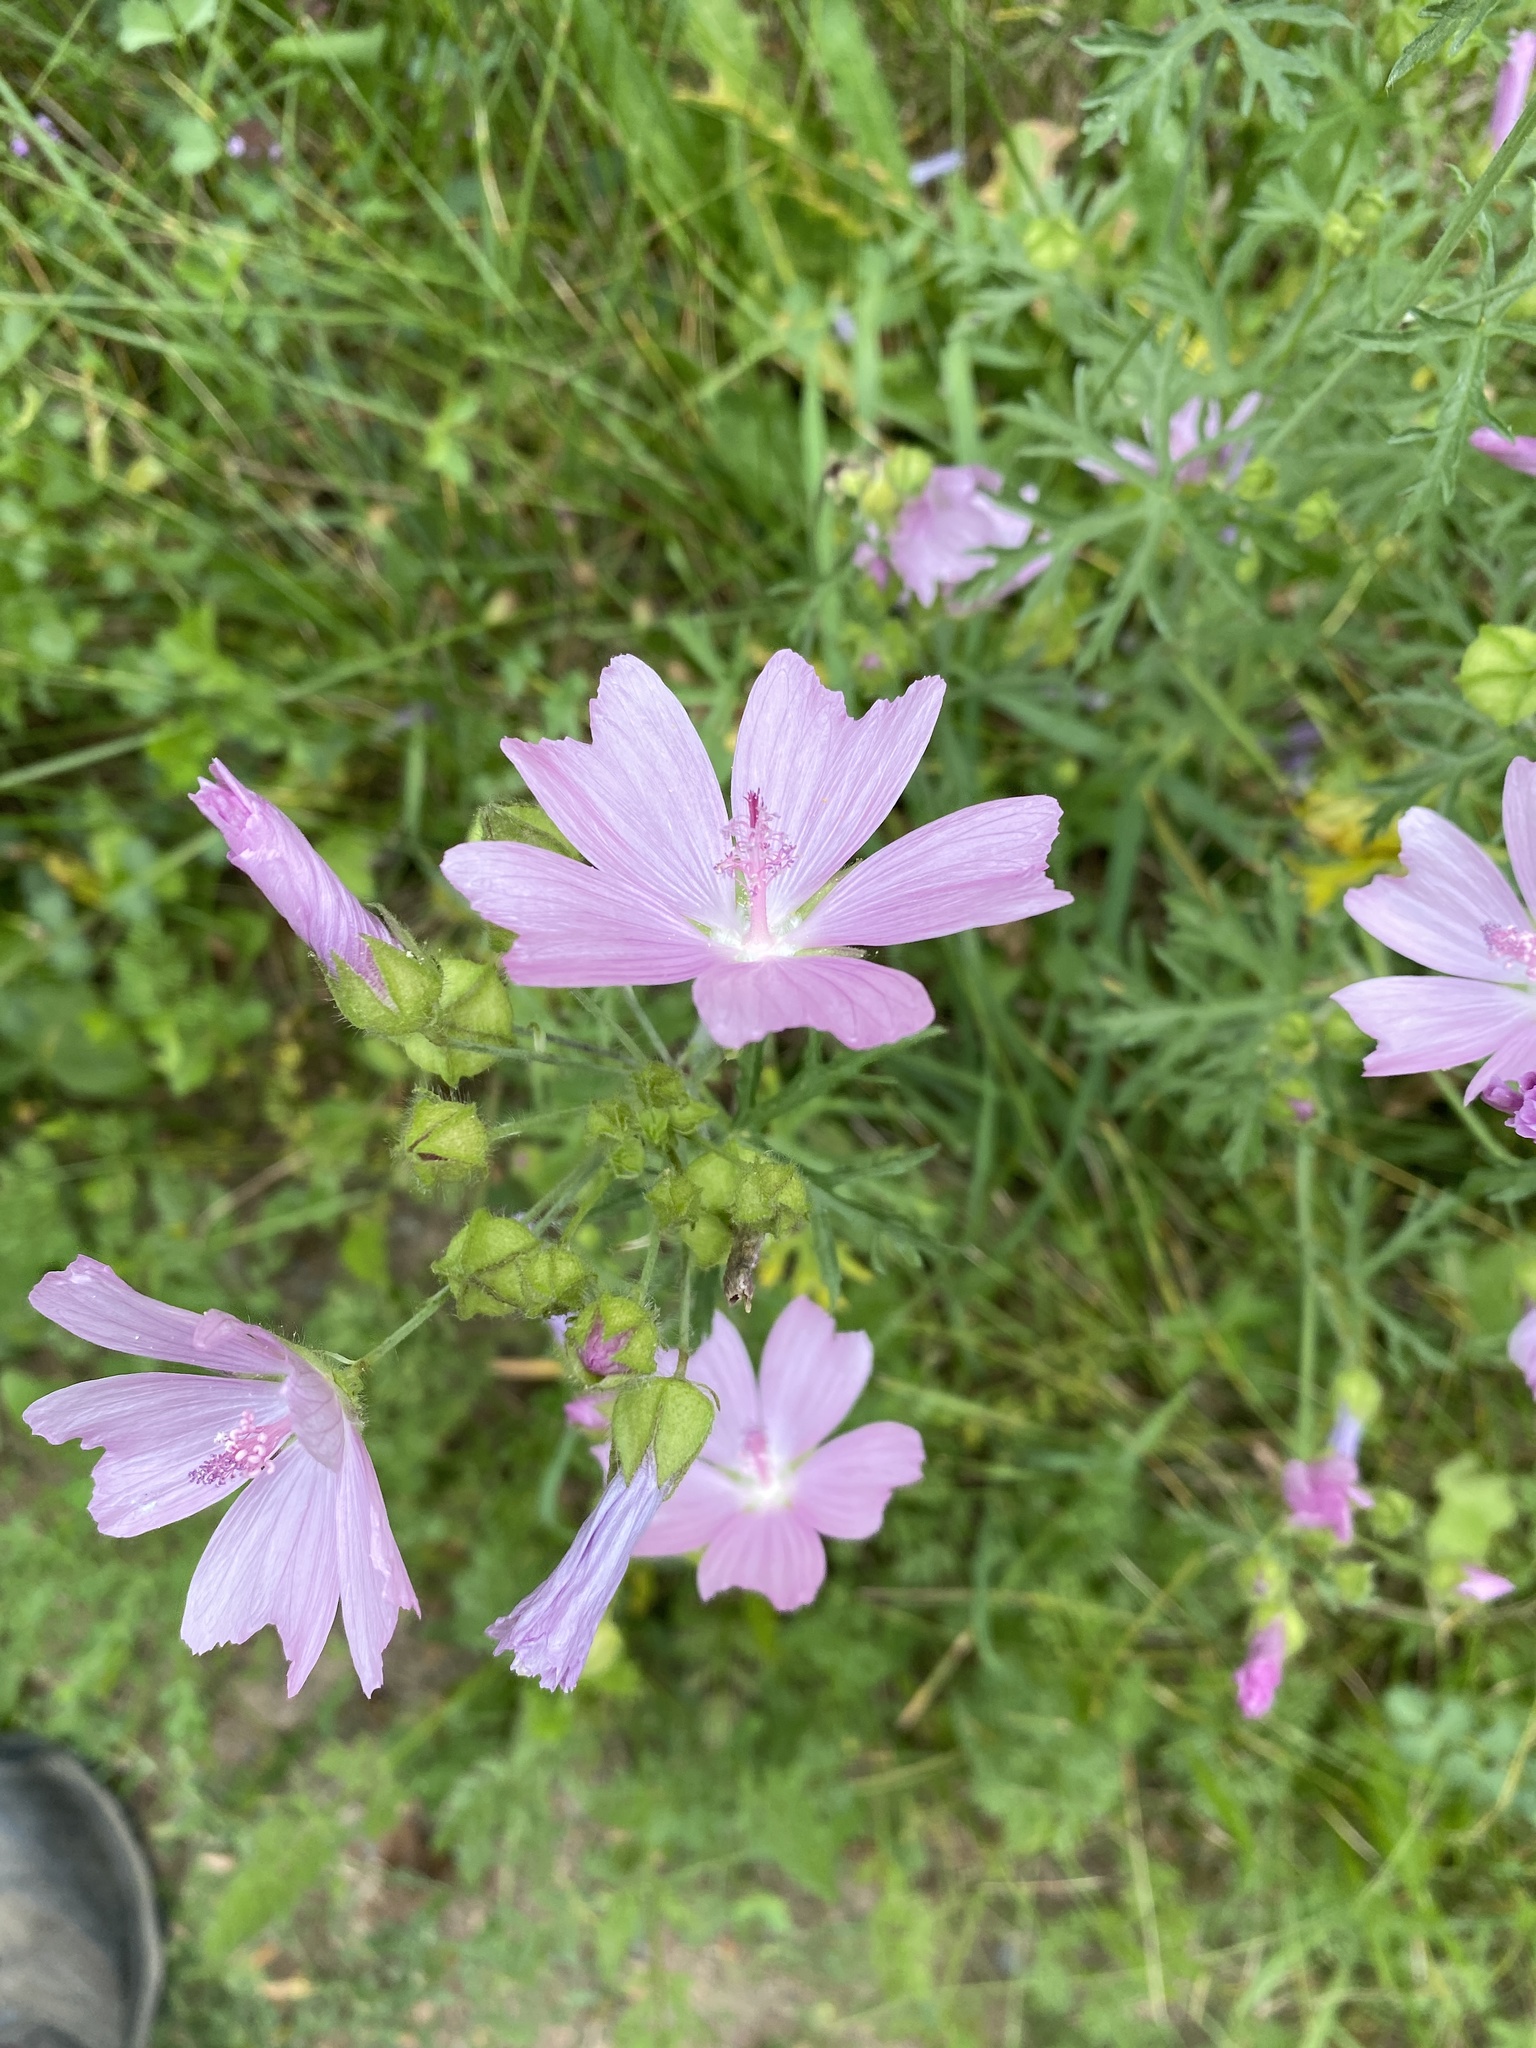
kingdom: Plantae
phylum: Tracheophyta
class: Magnoliopsida
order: Malvales
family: Malvaceae
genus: Malva
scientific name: Malva moschata
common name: Musk mallow
